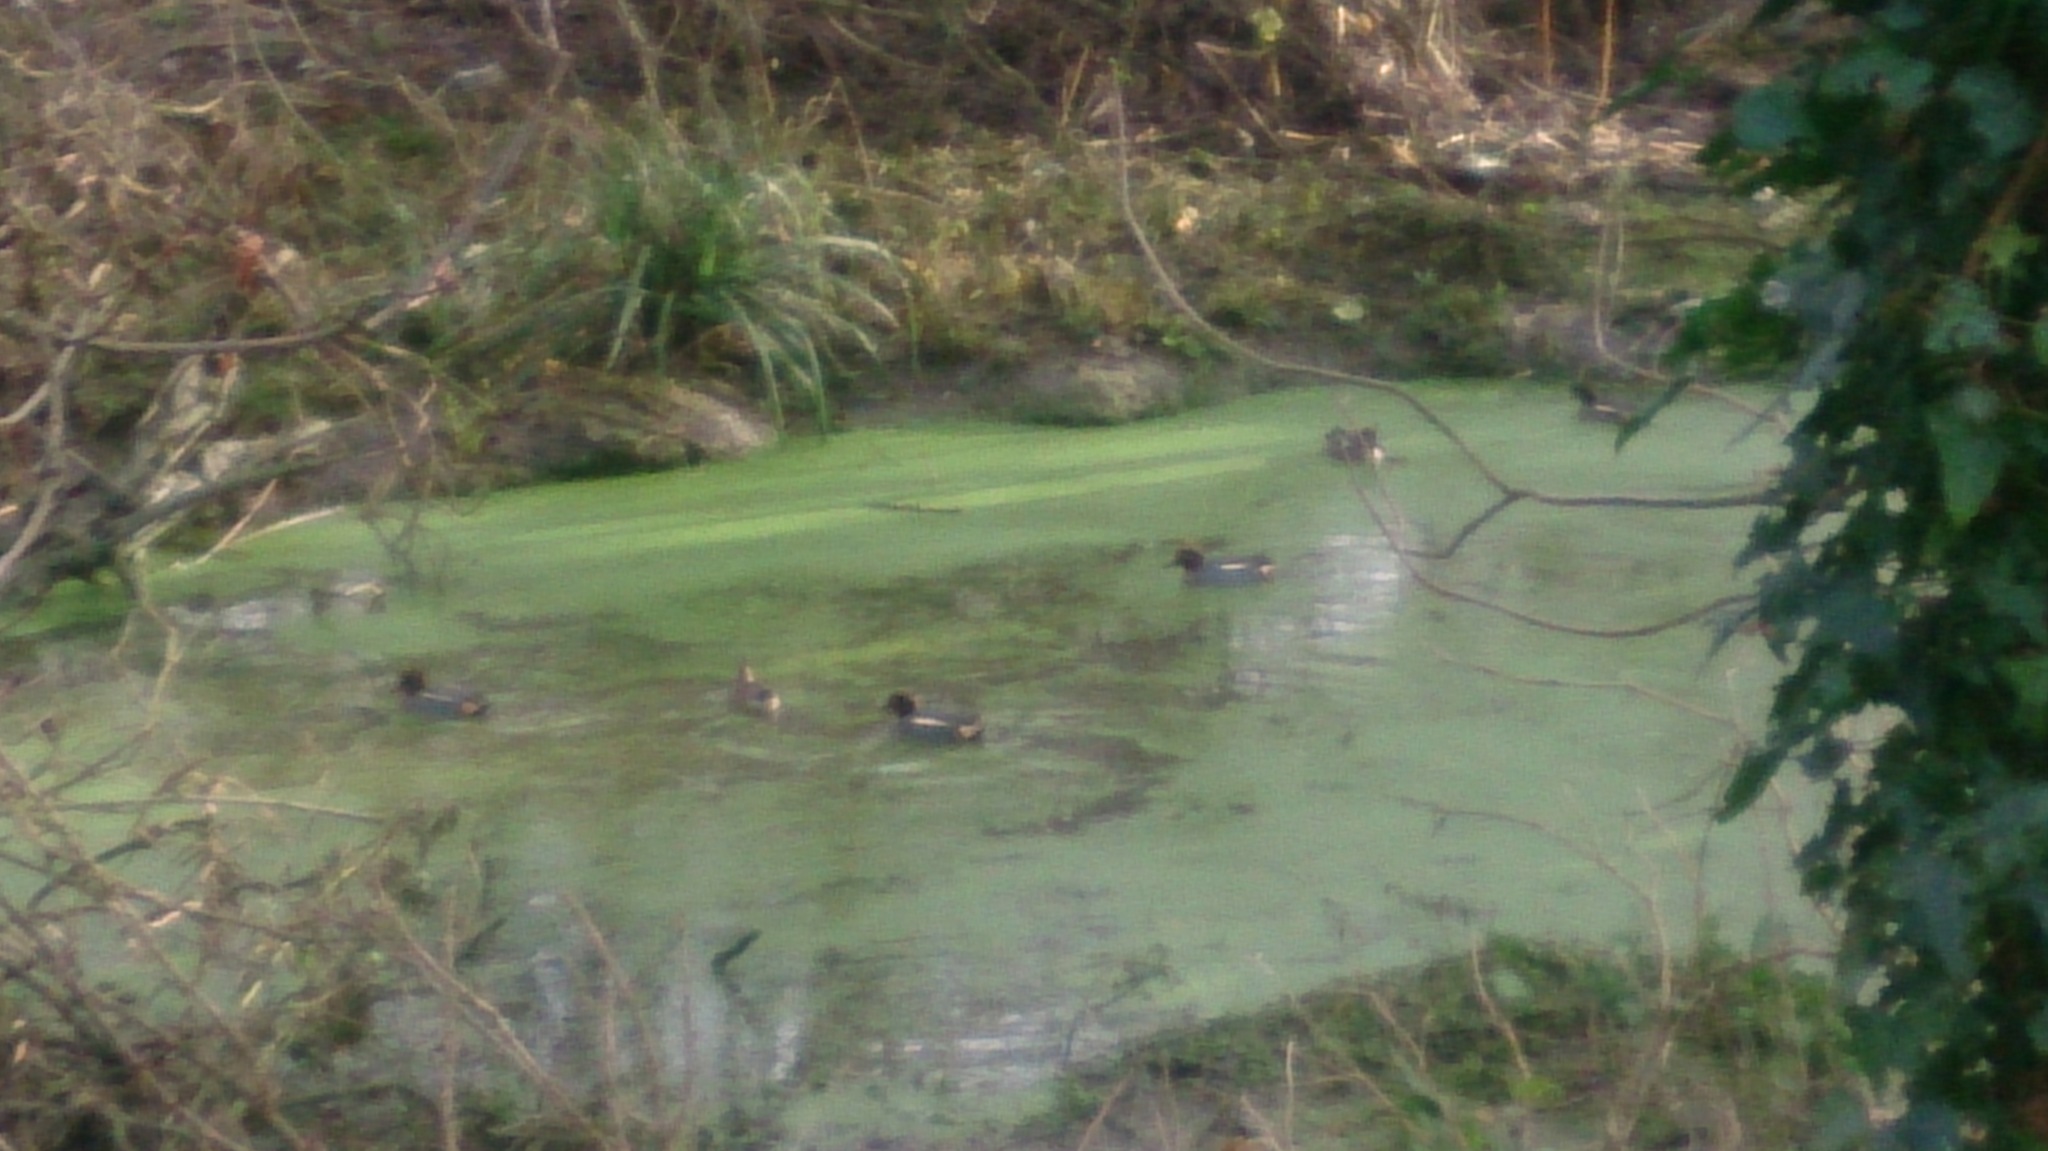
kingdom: Animalia
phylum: Chordata
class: Aves
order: Anseriformes
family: Anatidae
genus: Anas
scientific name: Anas crecca
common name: Eurasian teal
